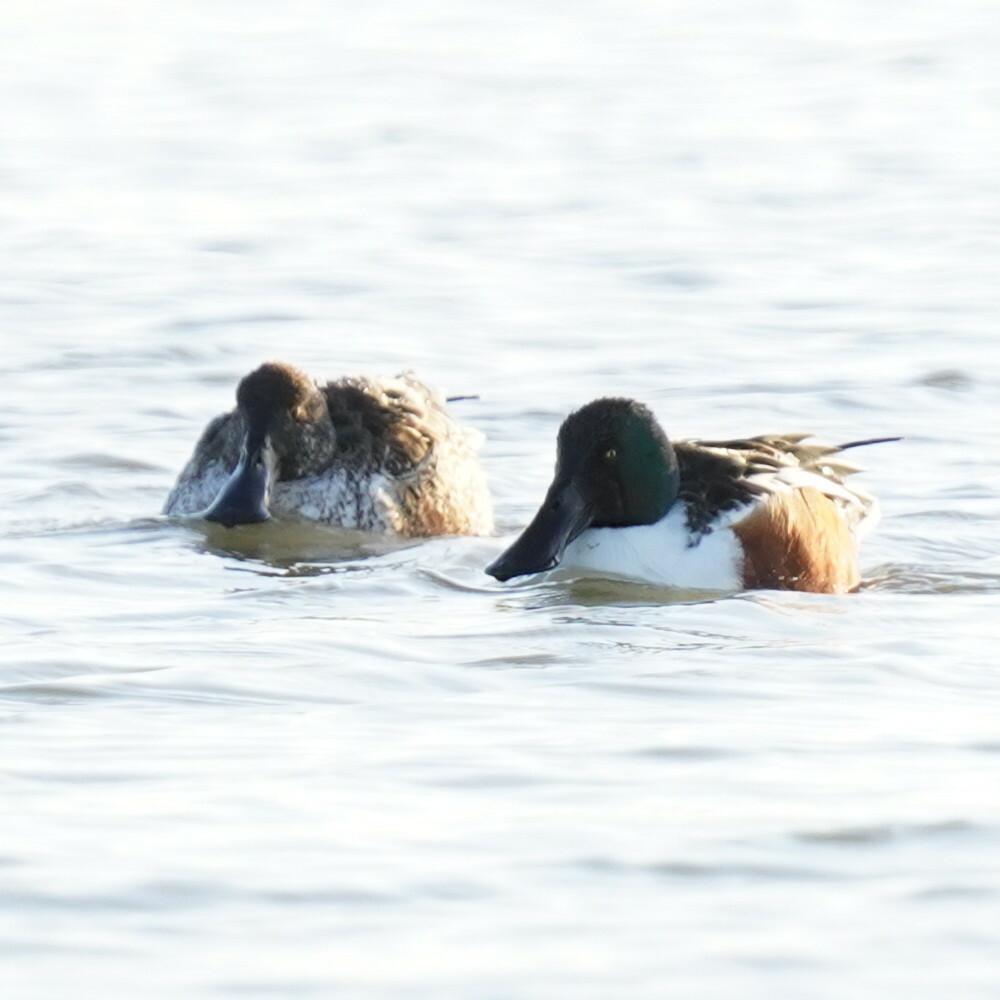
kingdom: Animalia
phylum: Chordata
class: Aves
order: Anseriformes
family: Anatidae
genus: Spatula
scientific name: Spatula clypeata
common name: Northern shoveler
